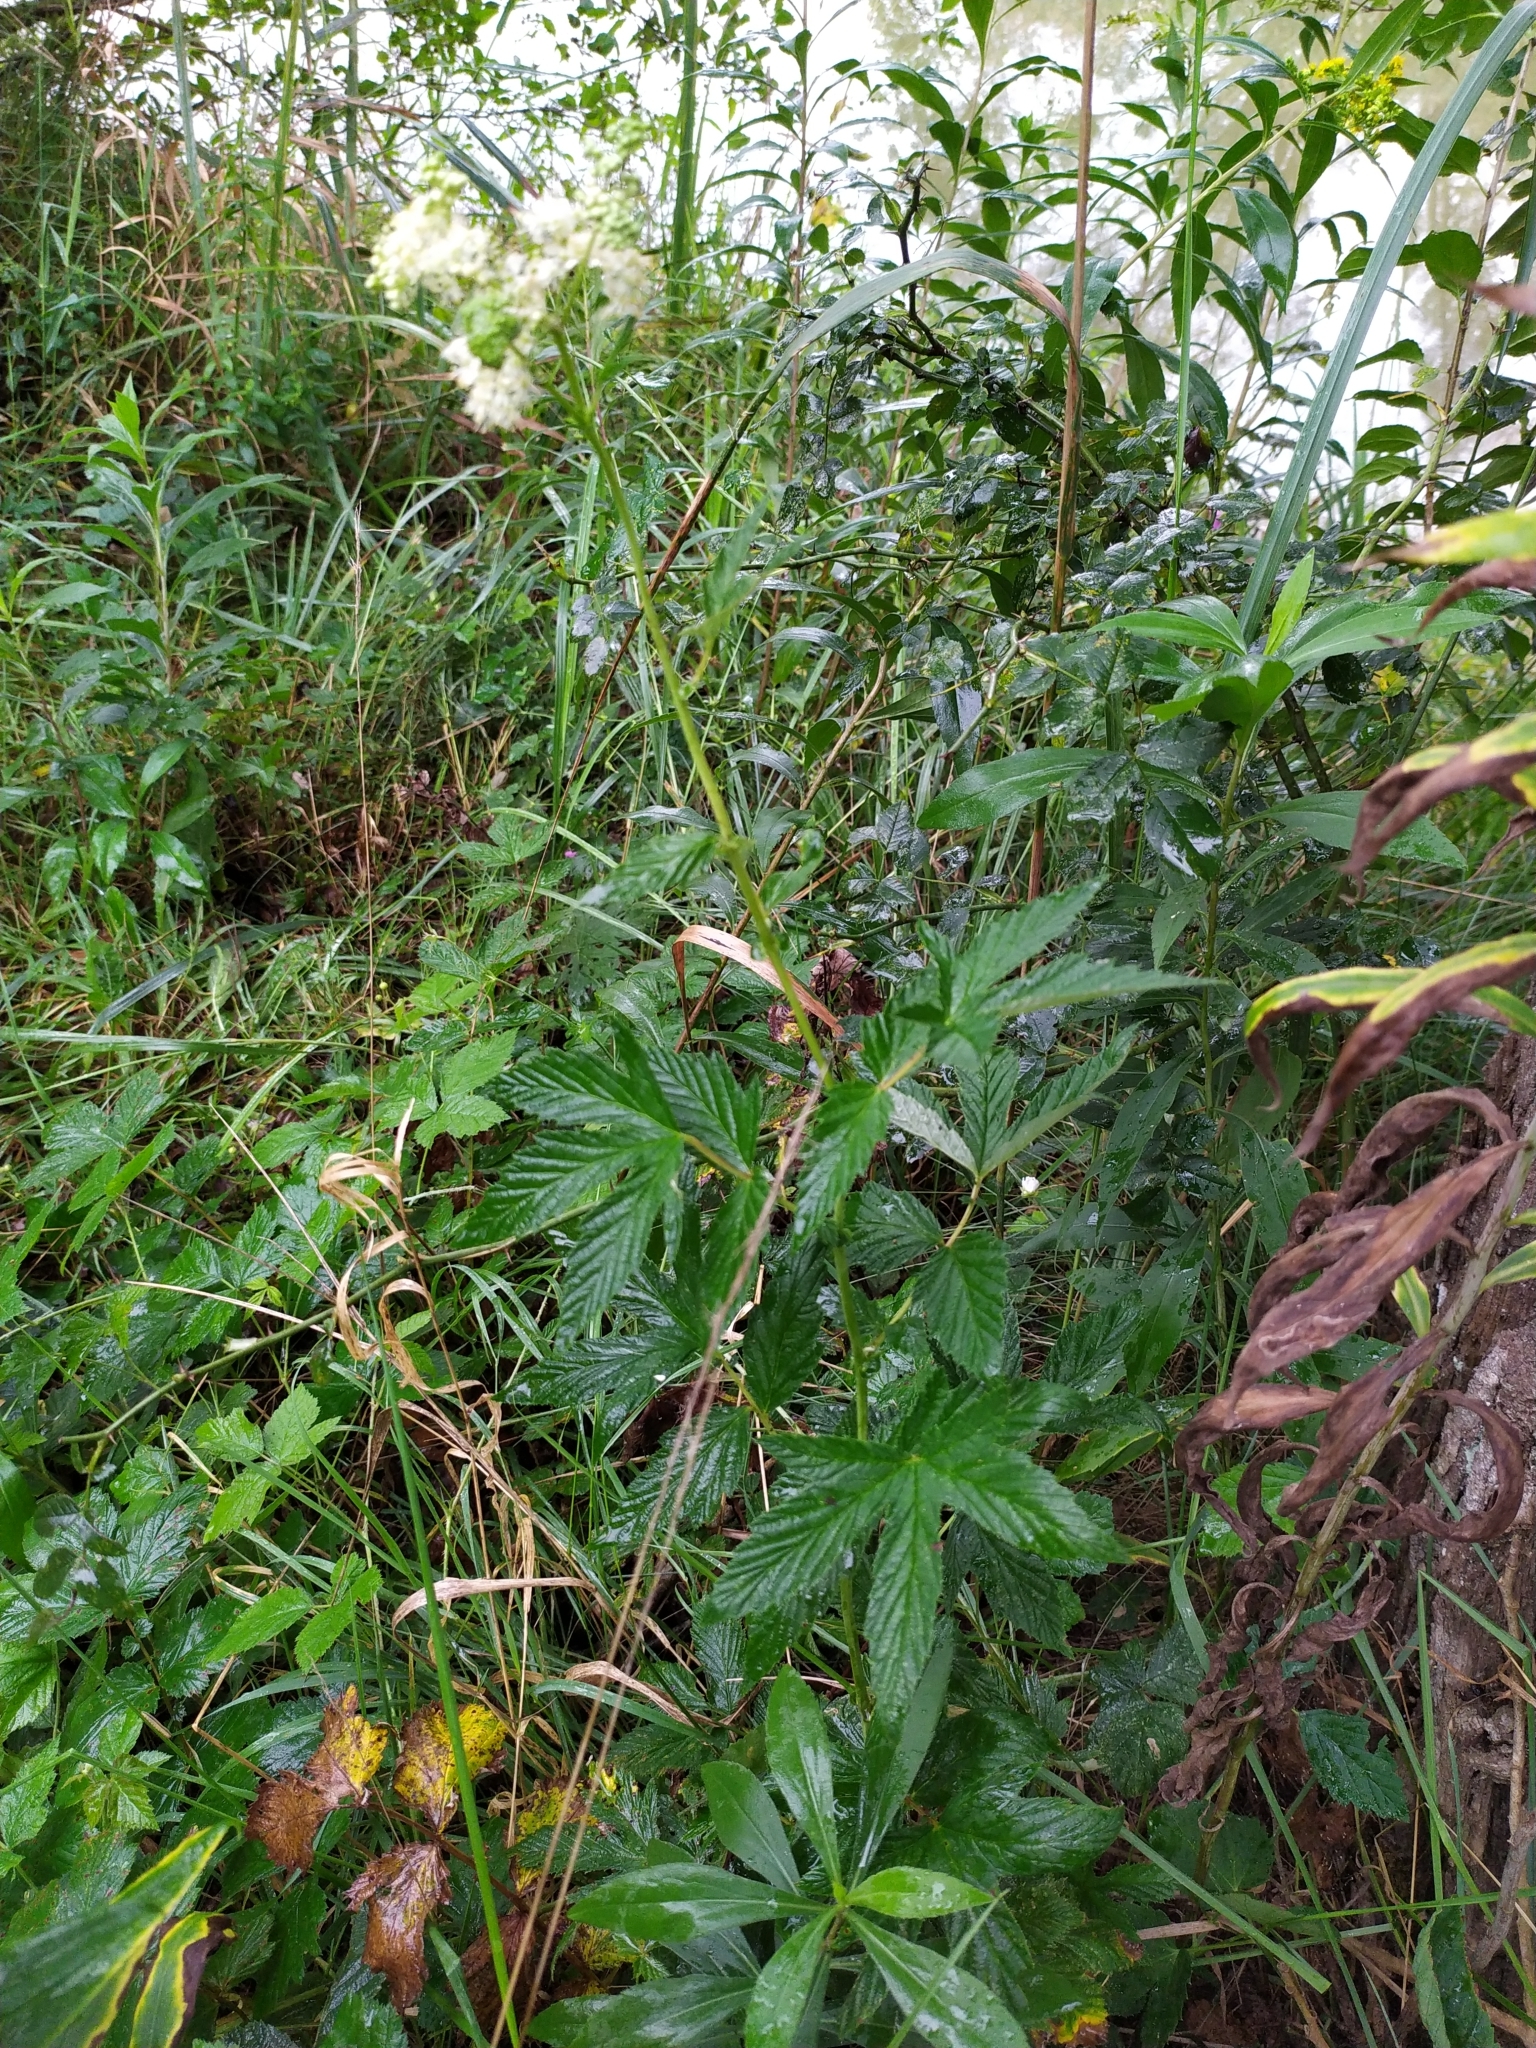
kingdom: Plantae
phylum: Tracheophyta
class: Magnoliopsida
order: Rosales
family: Rosaceae
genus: Filipendula
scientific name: Filipendula ulmaria
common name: Meadowsweet
